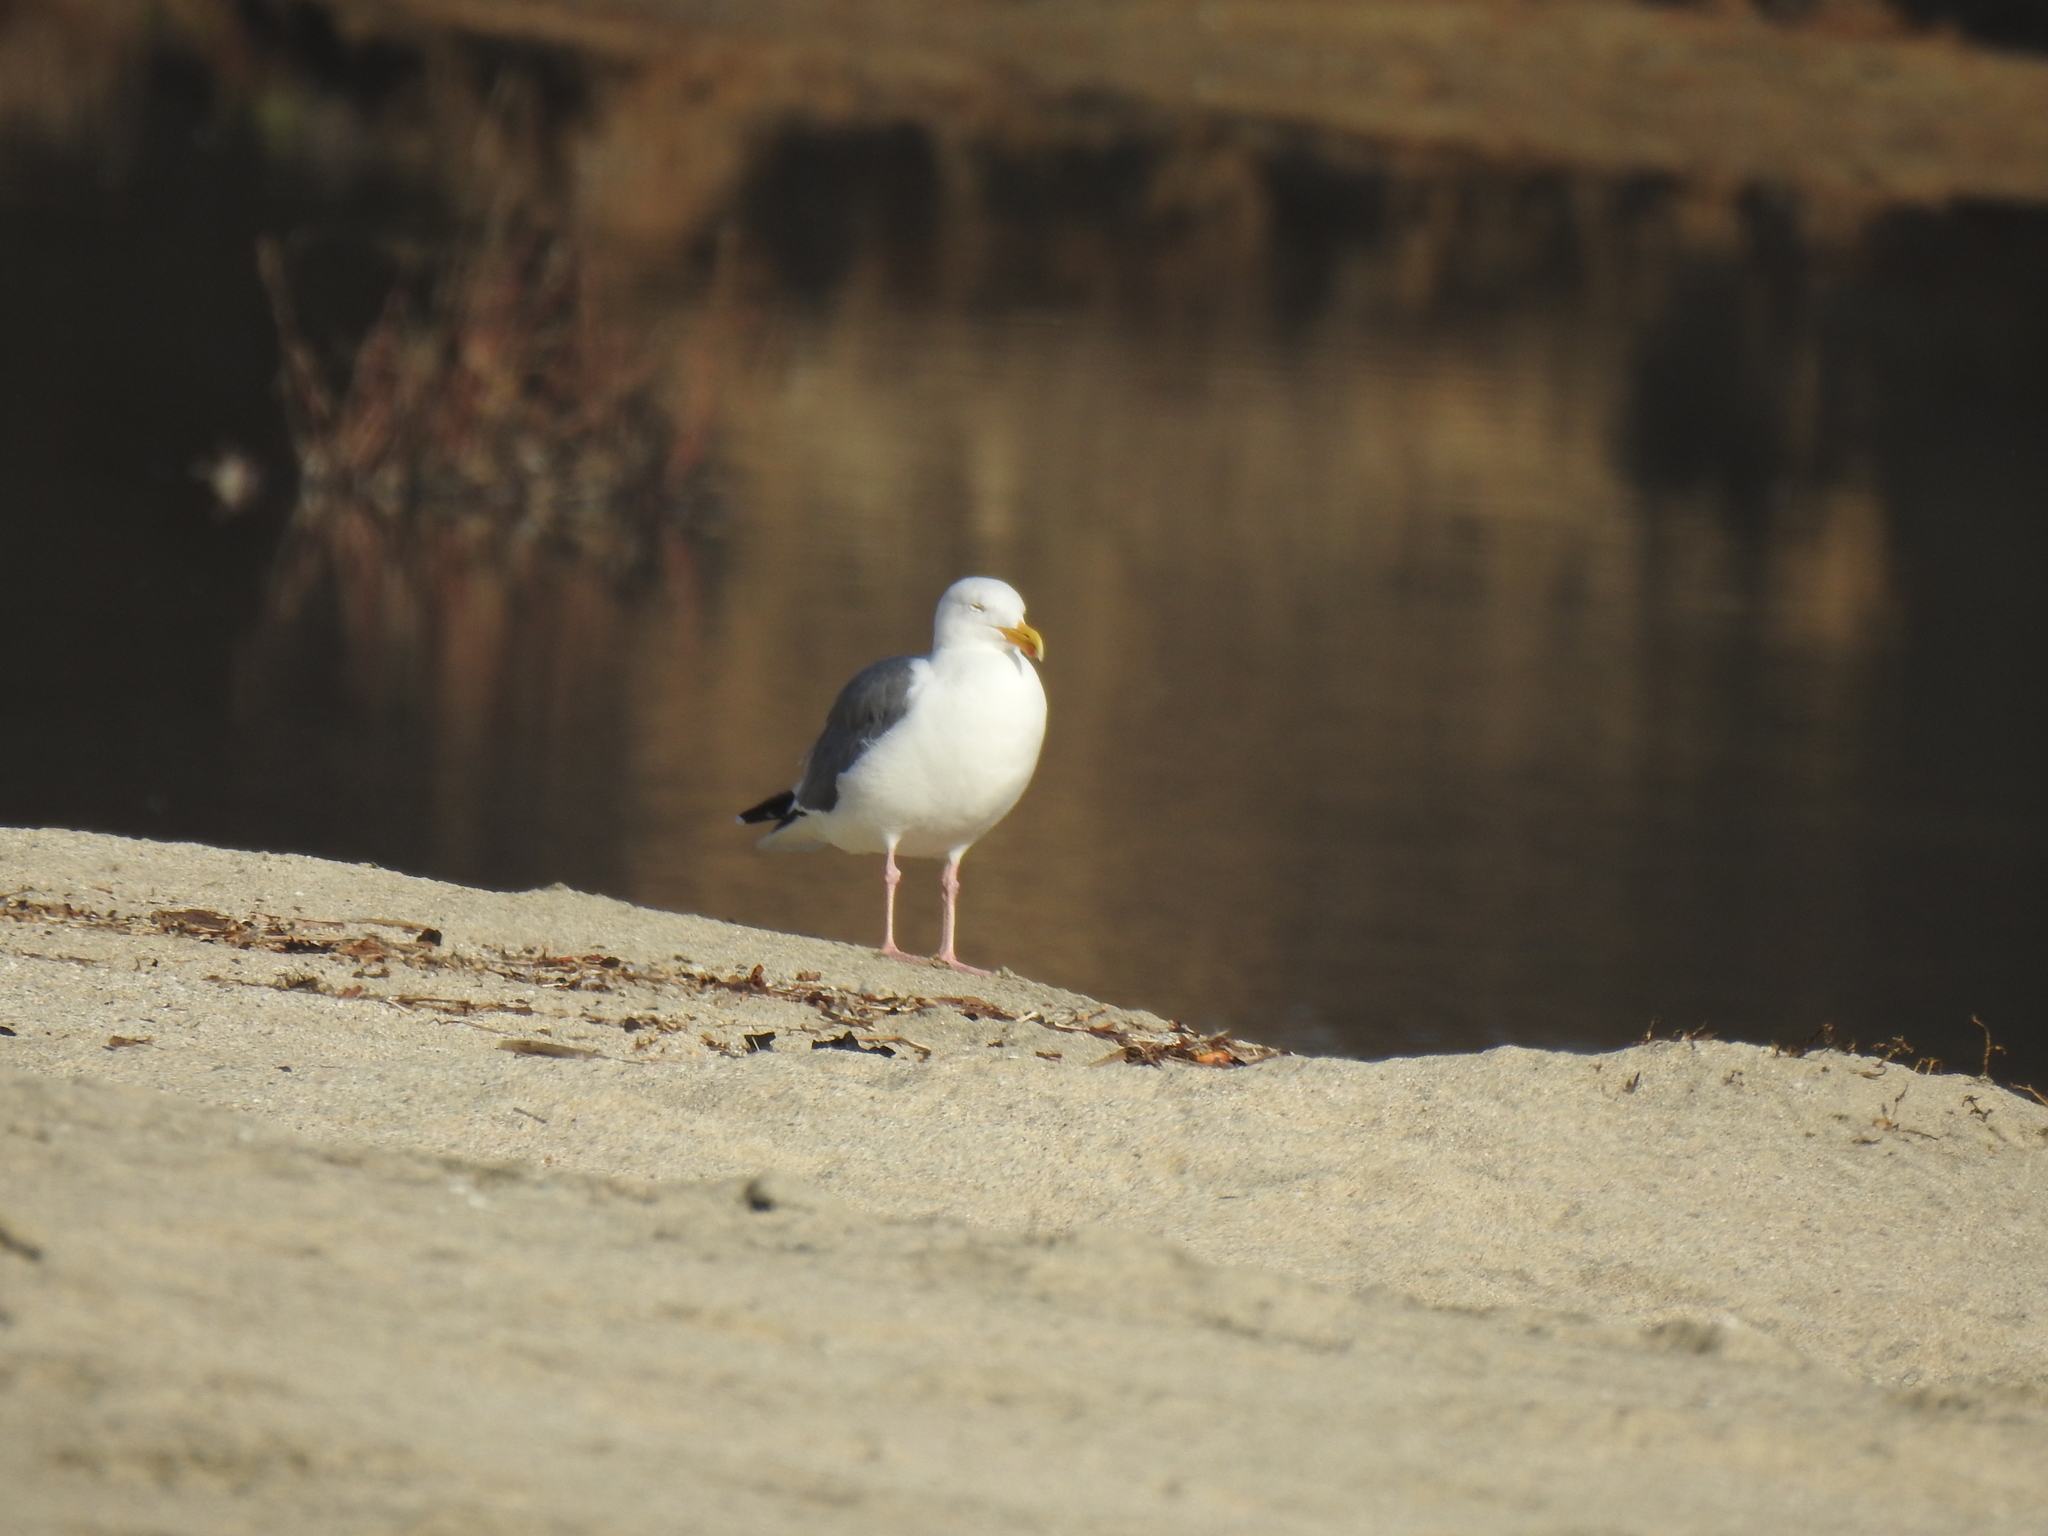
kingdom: Animalia
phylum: Chordata
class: Aves
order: Charadriiformes
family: Laridae
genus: Larus
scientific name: Larus occidentalis
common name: Western gull
